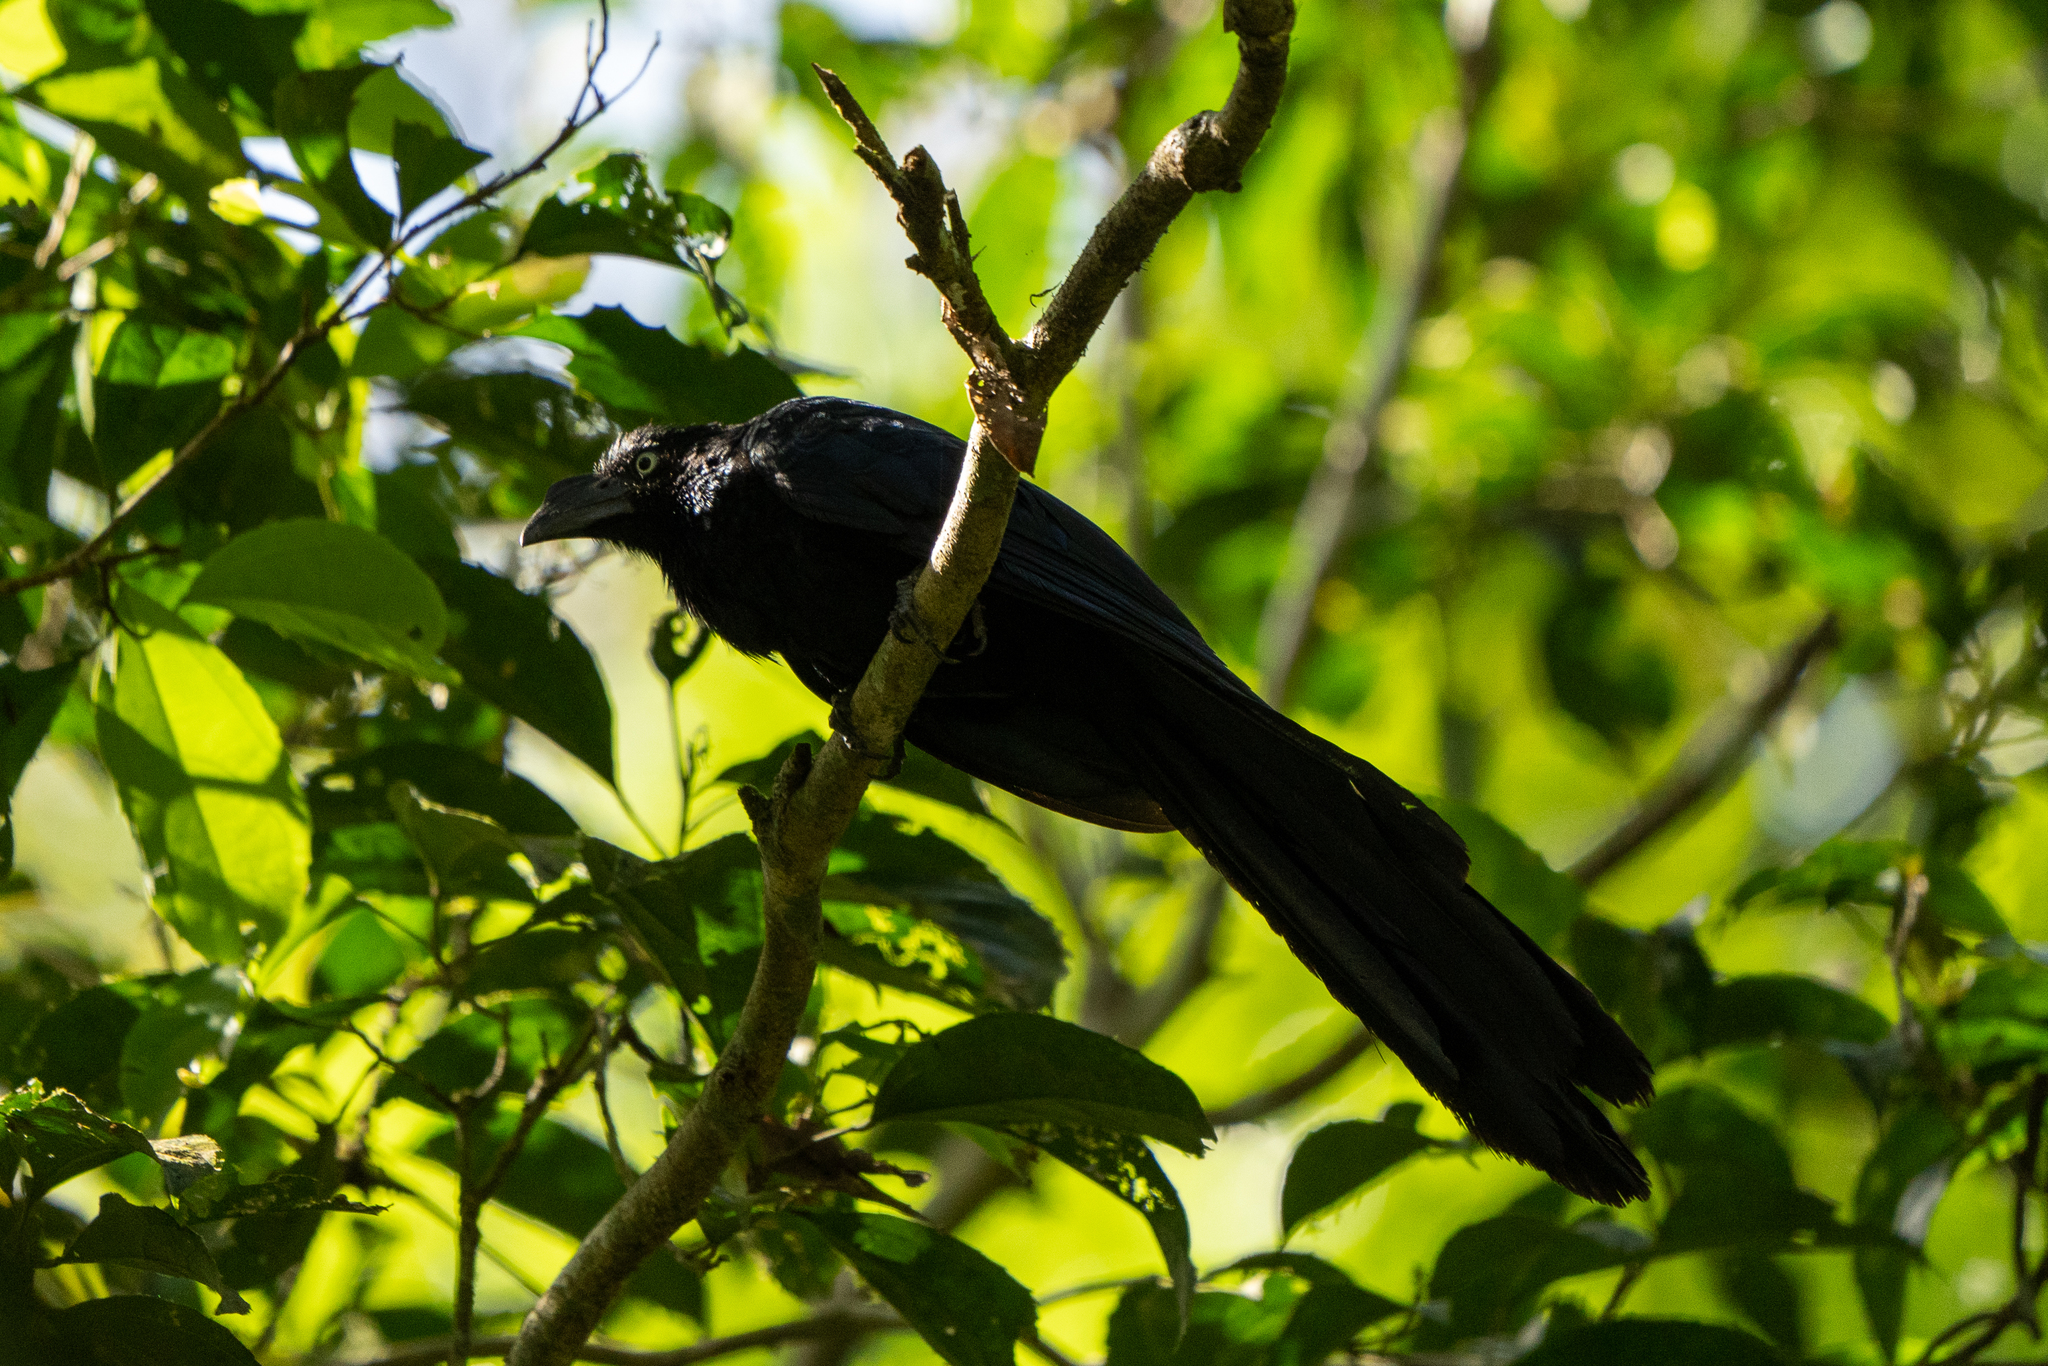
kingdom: Animalia
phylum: Chordata
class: Aves
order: Cuculiformes
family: Cuculidae
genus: Crotophaga
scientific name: Crotophaga major
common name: Greater ani
